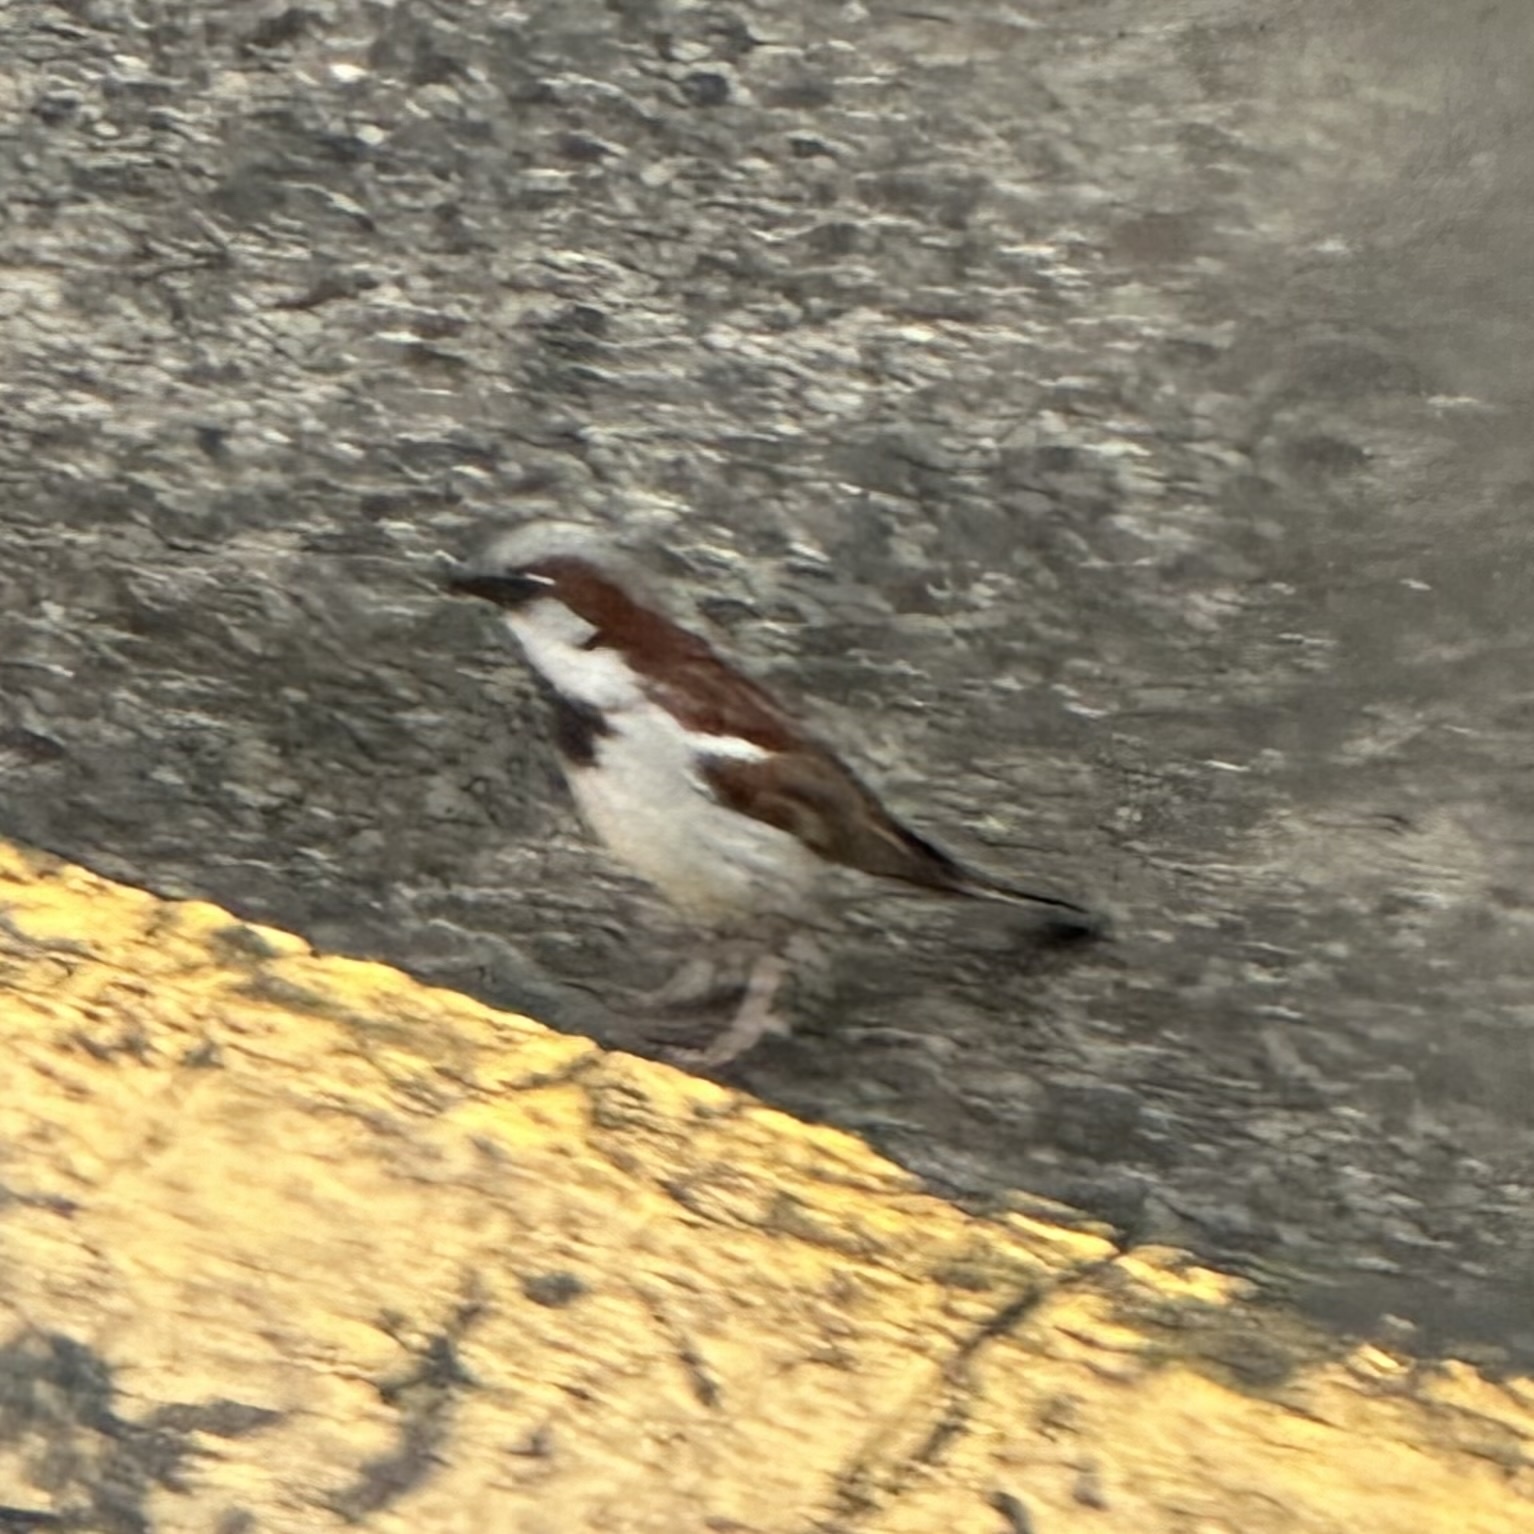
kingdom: Animalia
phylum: Chordata
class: Aves
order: Passeriformes
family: Passeridae
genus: Passer
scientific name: Passer domesticus
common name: House sparrow
